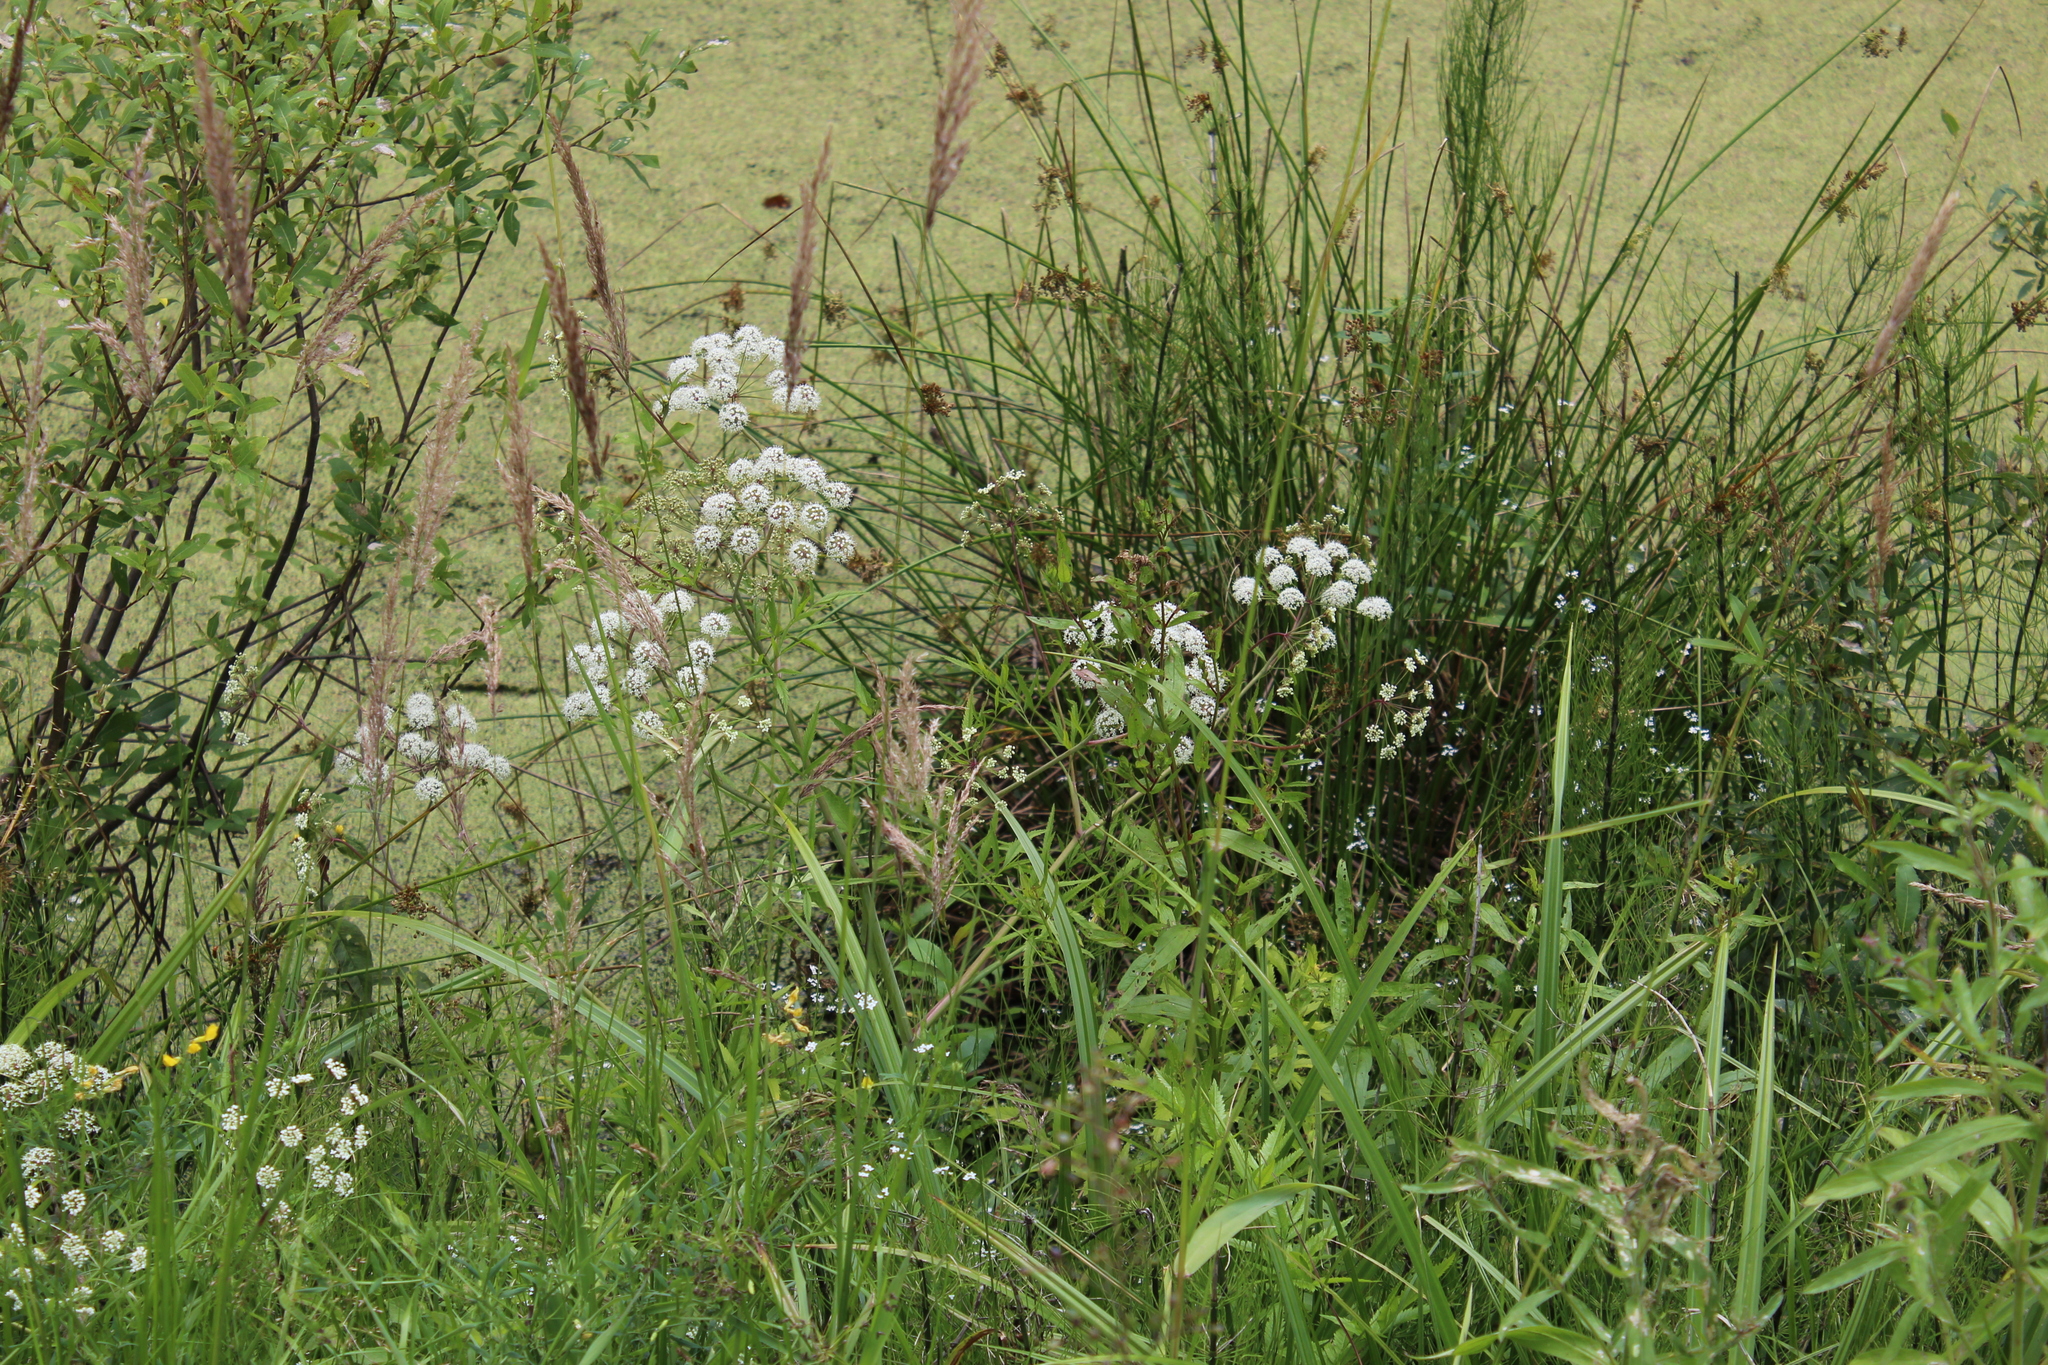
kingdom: Plantae
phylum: Tracheophyta
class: Magnoliopsida
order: Apiales
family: Apiaceae
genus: Cicuta
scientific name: Cicuta virosa
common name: Cowbane
